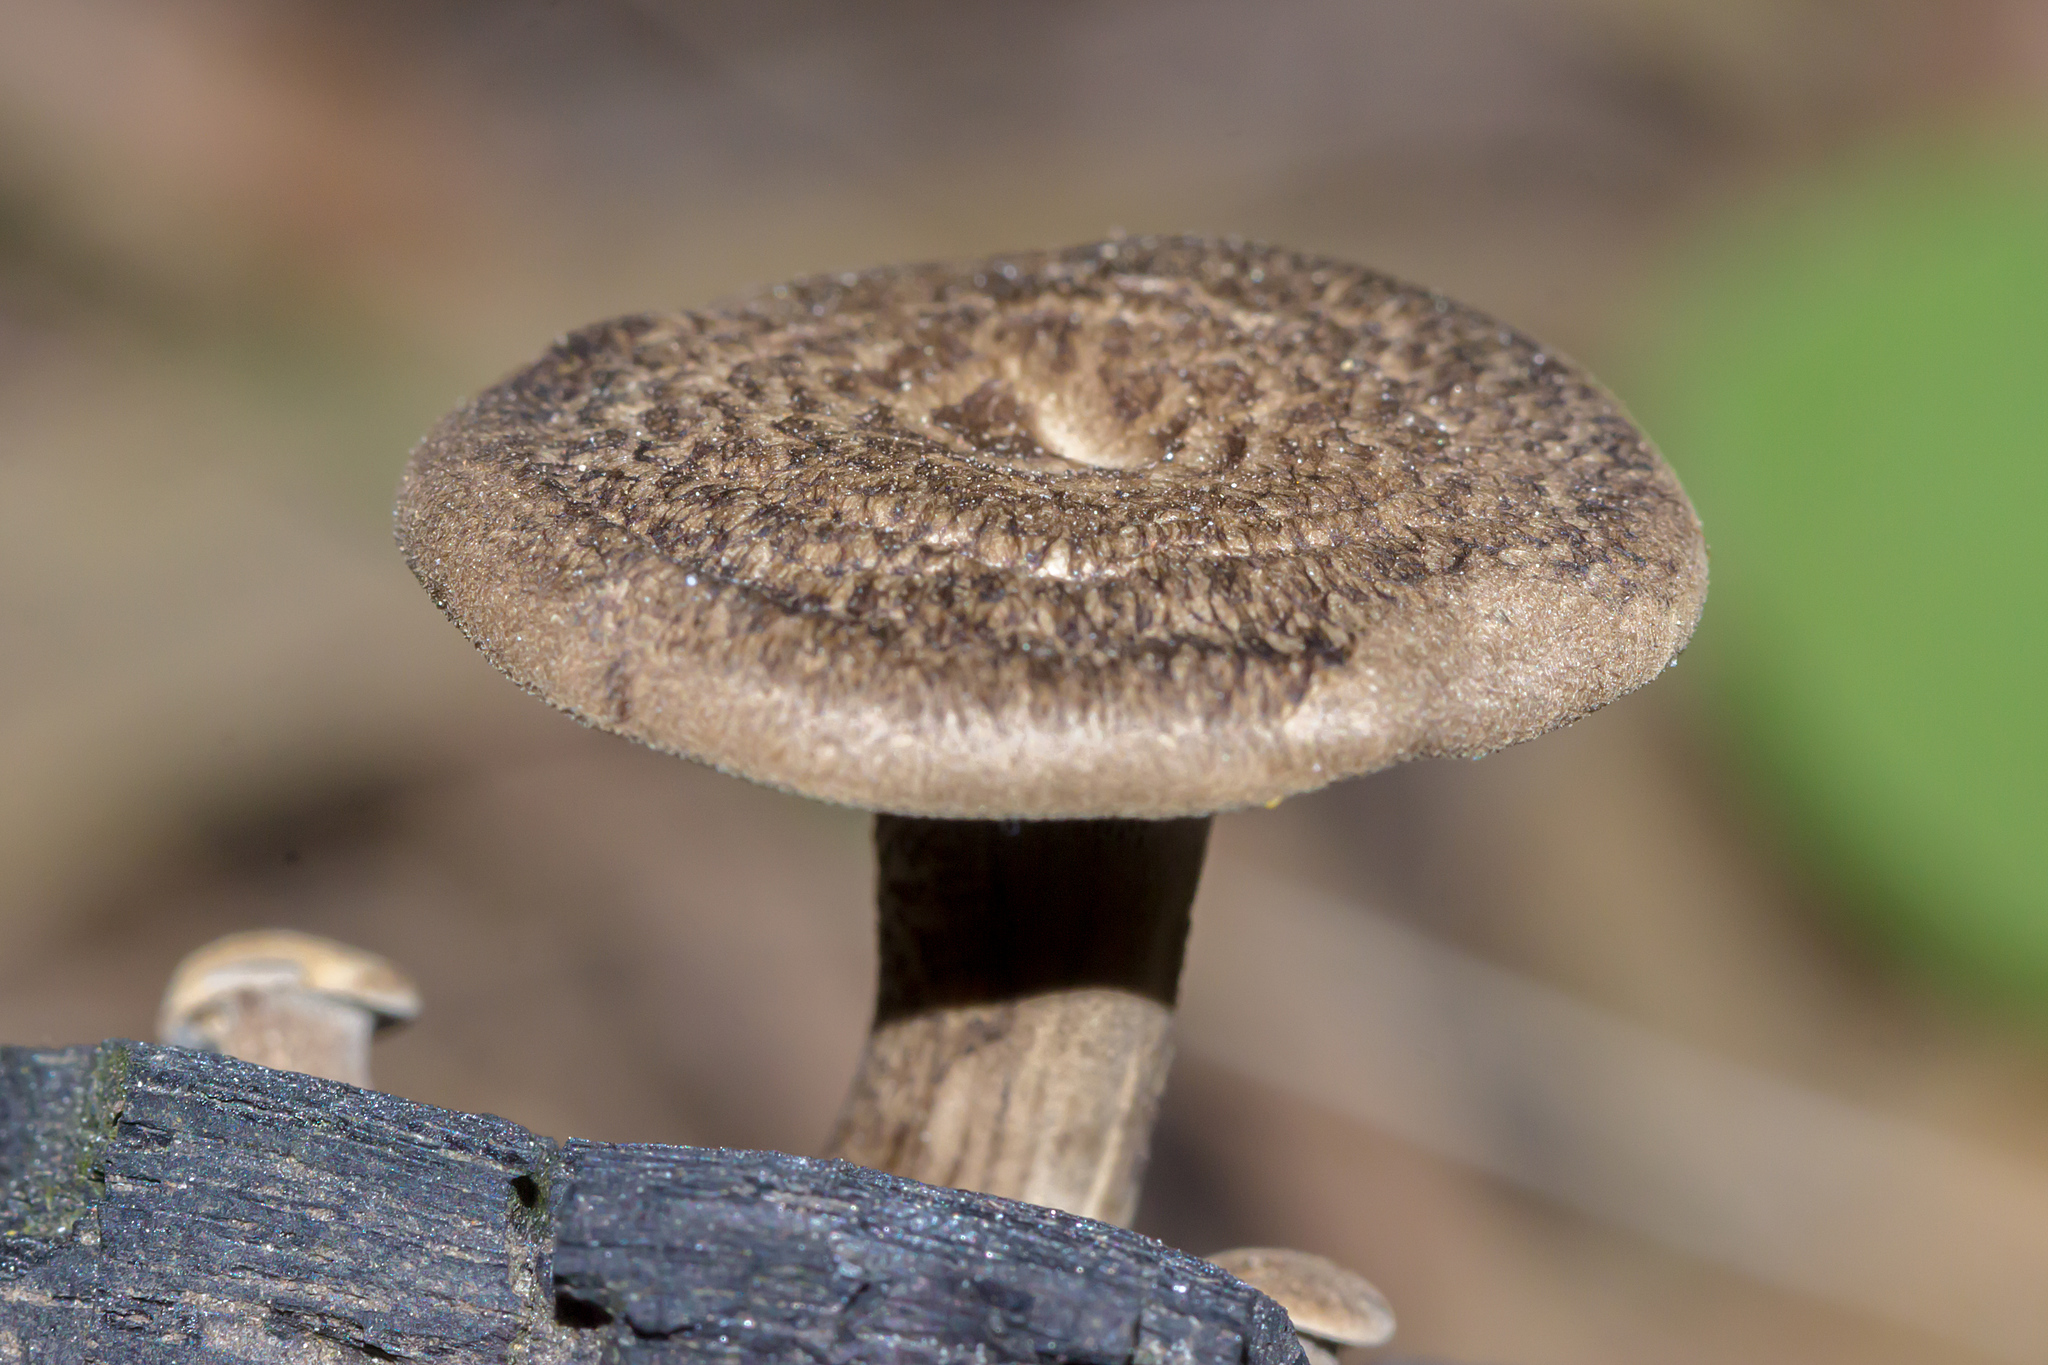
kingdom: Fungi
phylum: Basidiomycota
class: Agaricomycetes
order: Polyporales
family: Polyporaceae
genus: Lentinus
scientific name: Lentinus arcularius
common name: Spring polypore
